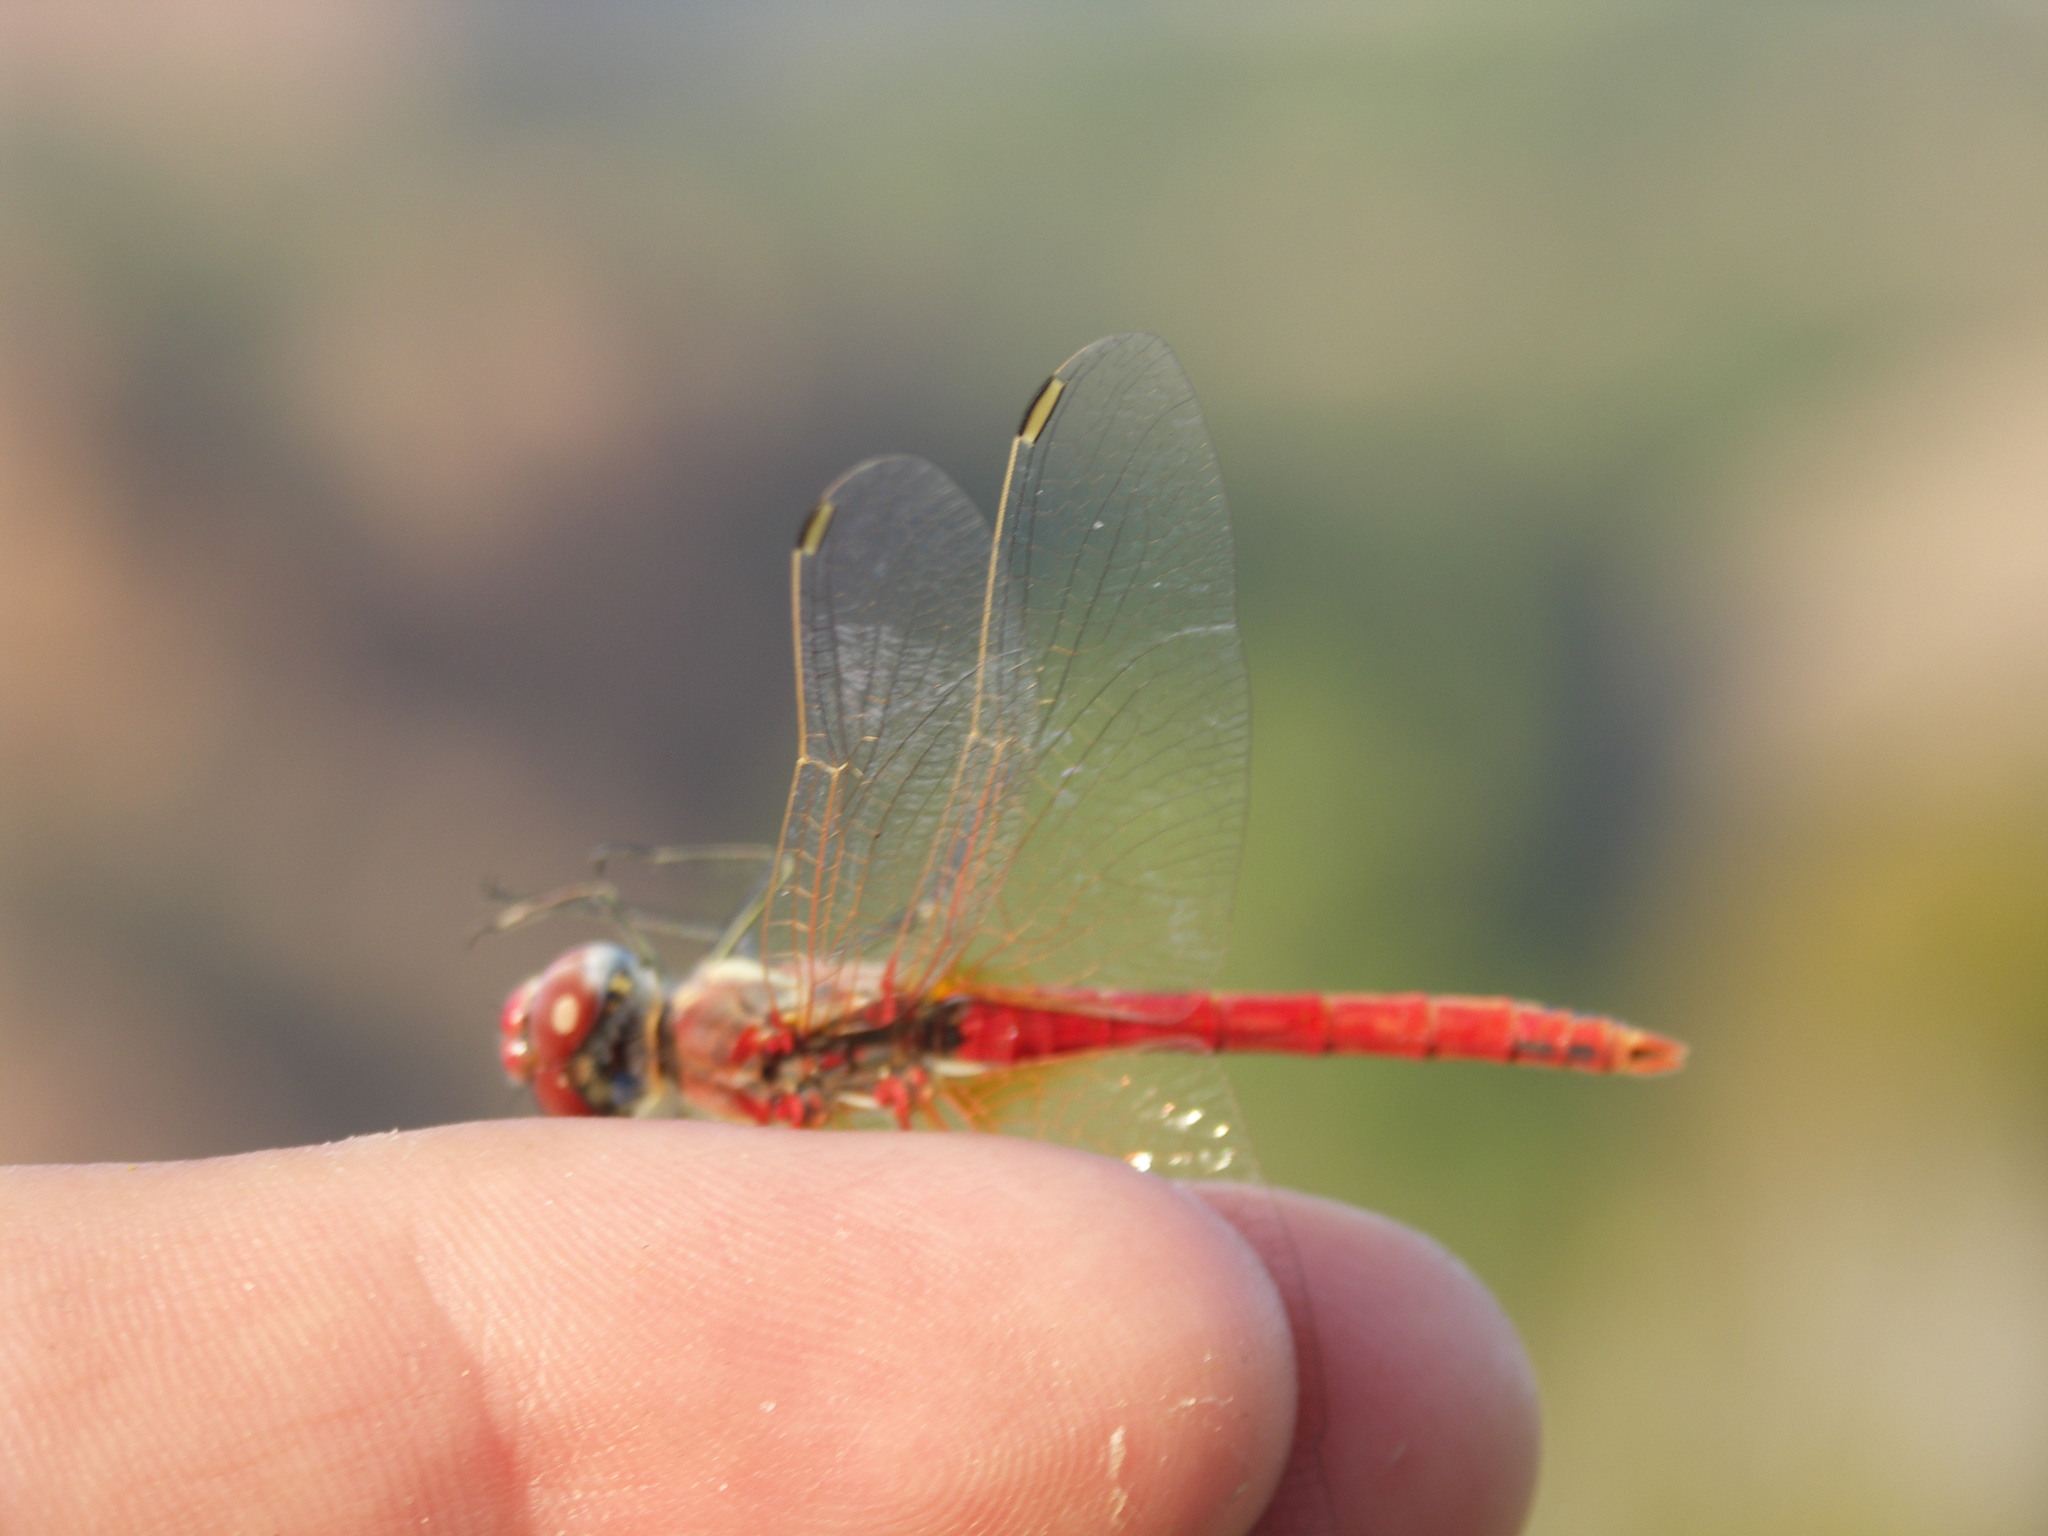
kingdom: Animalia
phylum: Arthropoda
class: Insecta
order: Odonata
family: Libellulidae
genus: Sympetrum
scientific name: Sympetrum fonscolombii
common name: Red-veined darter
